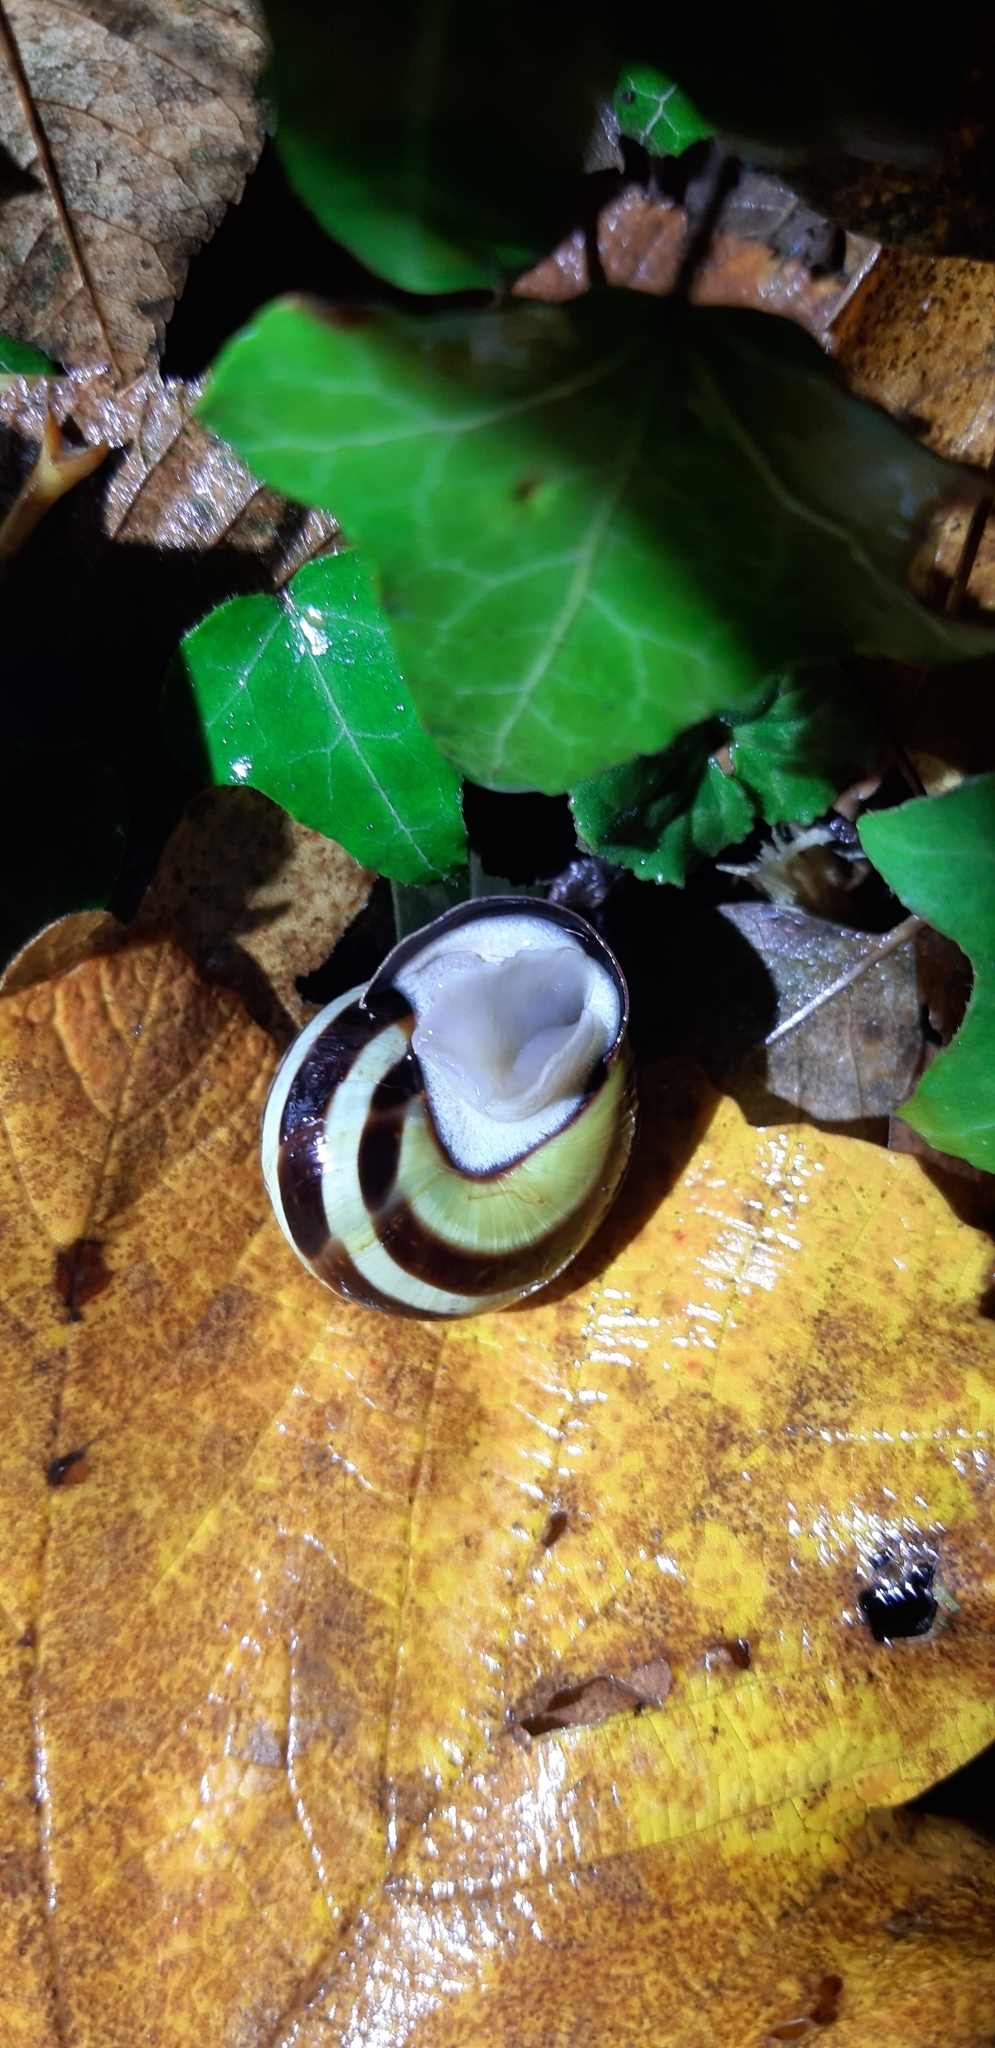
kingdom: Animalia
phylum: Mollusca
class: Gastropoda
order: Stylommatophora
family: Helicidae
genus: Cepaea
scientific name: Cepaea nemoralis
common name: Grovesnail
